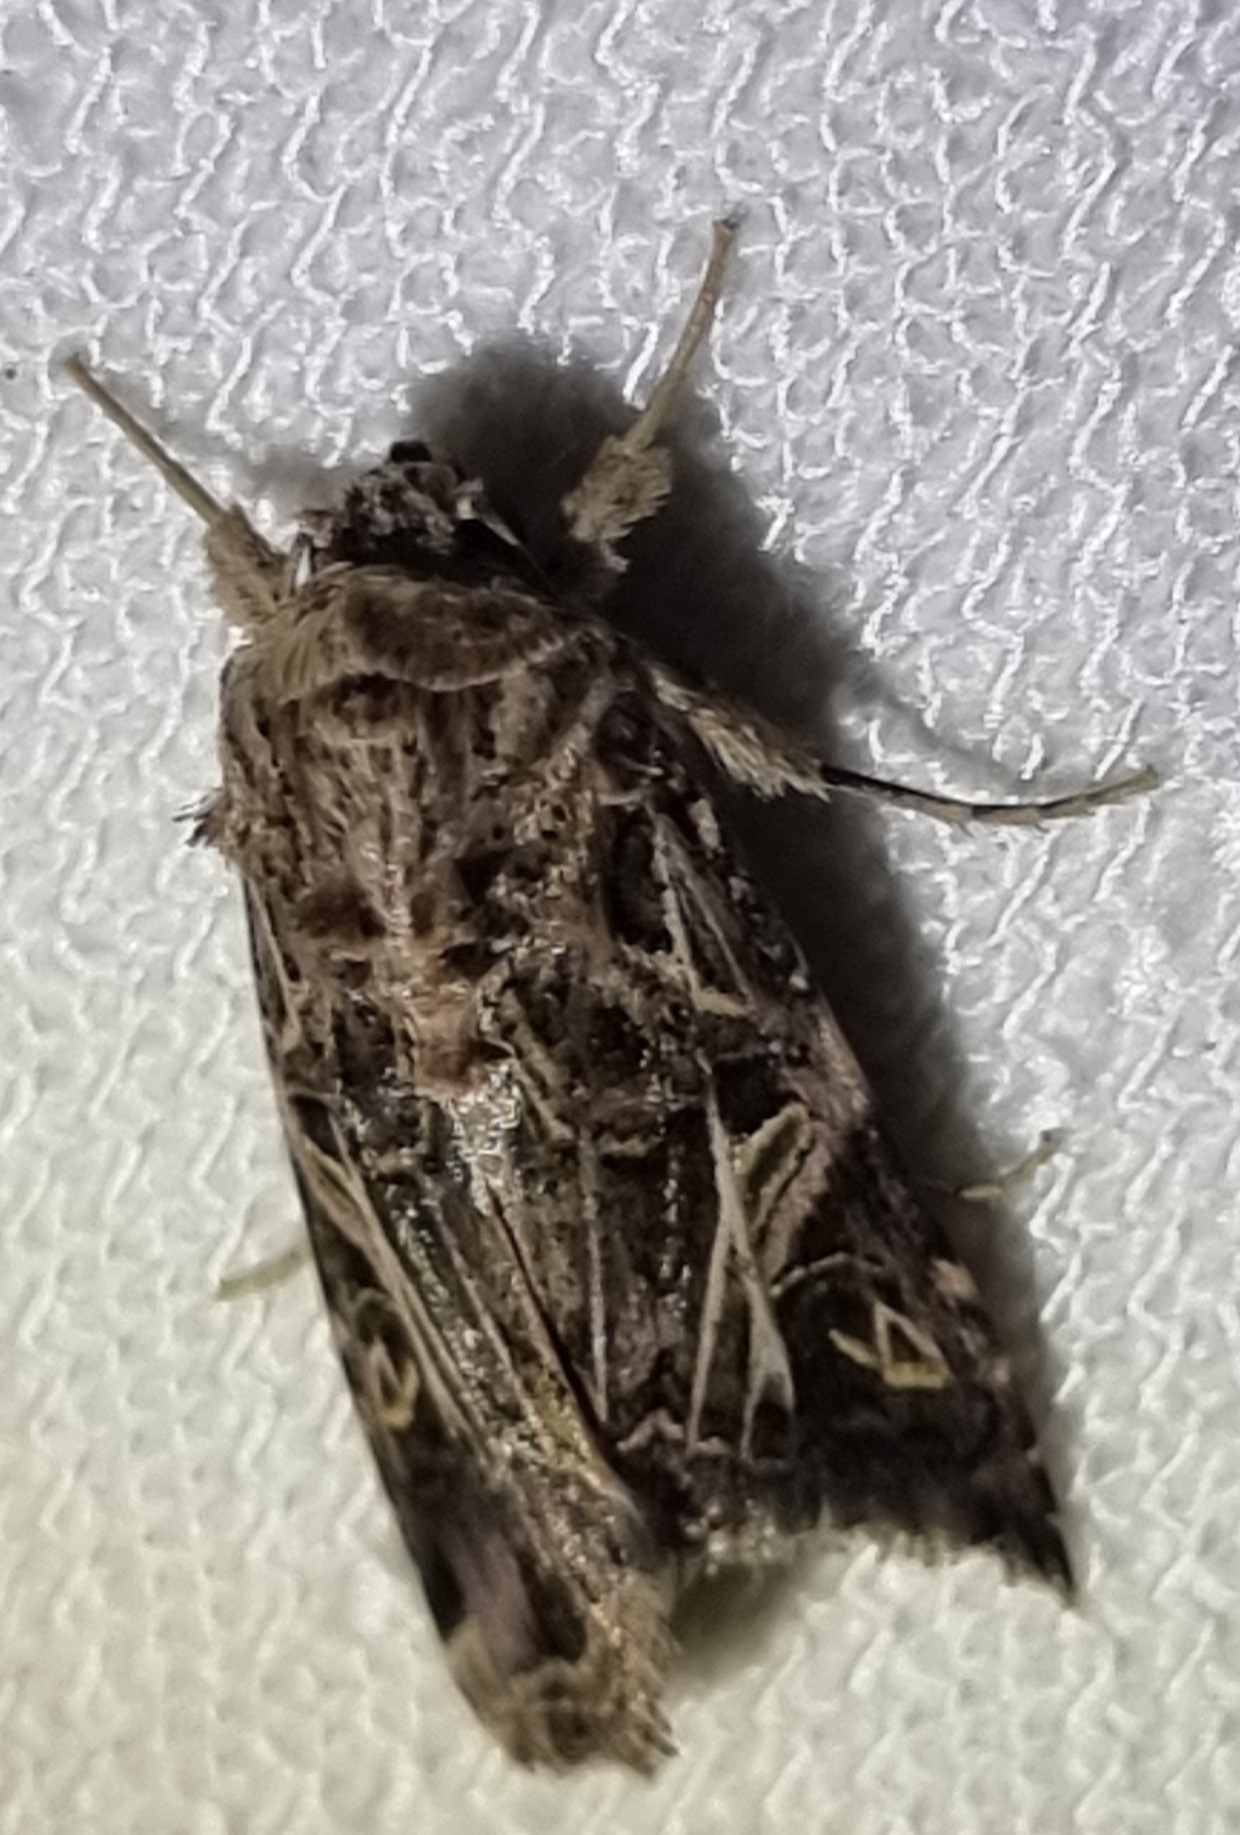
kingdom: Animalia
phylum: Arthropoda
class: Insecta
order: Lepidoptera
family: Noctuidae
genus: Spodoptera
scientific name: Spodoptera litura
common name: Asian cotton leafworm
